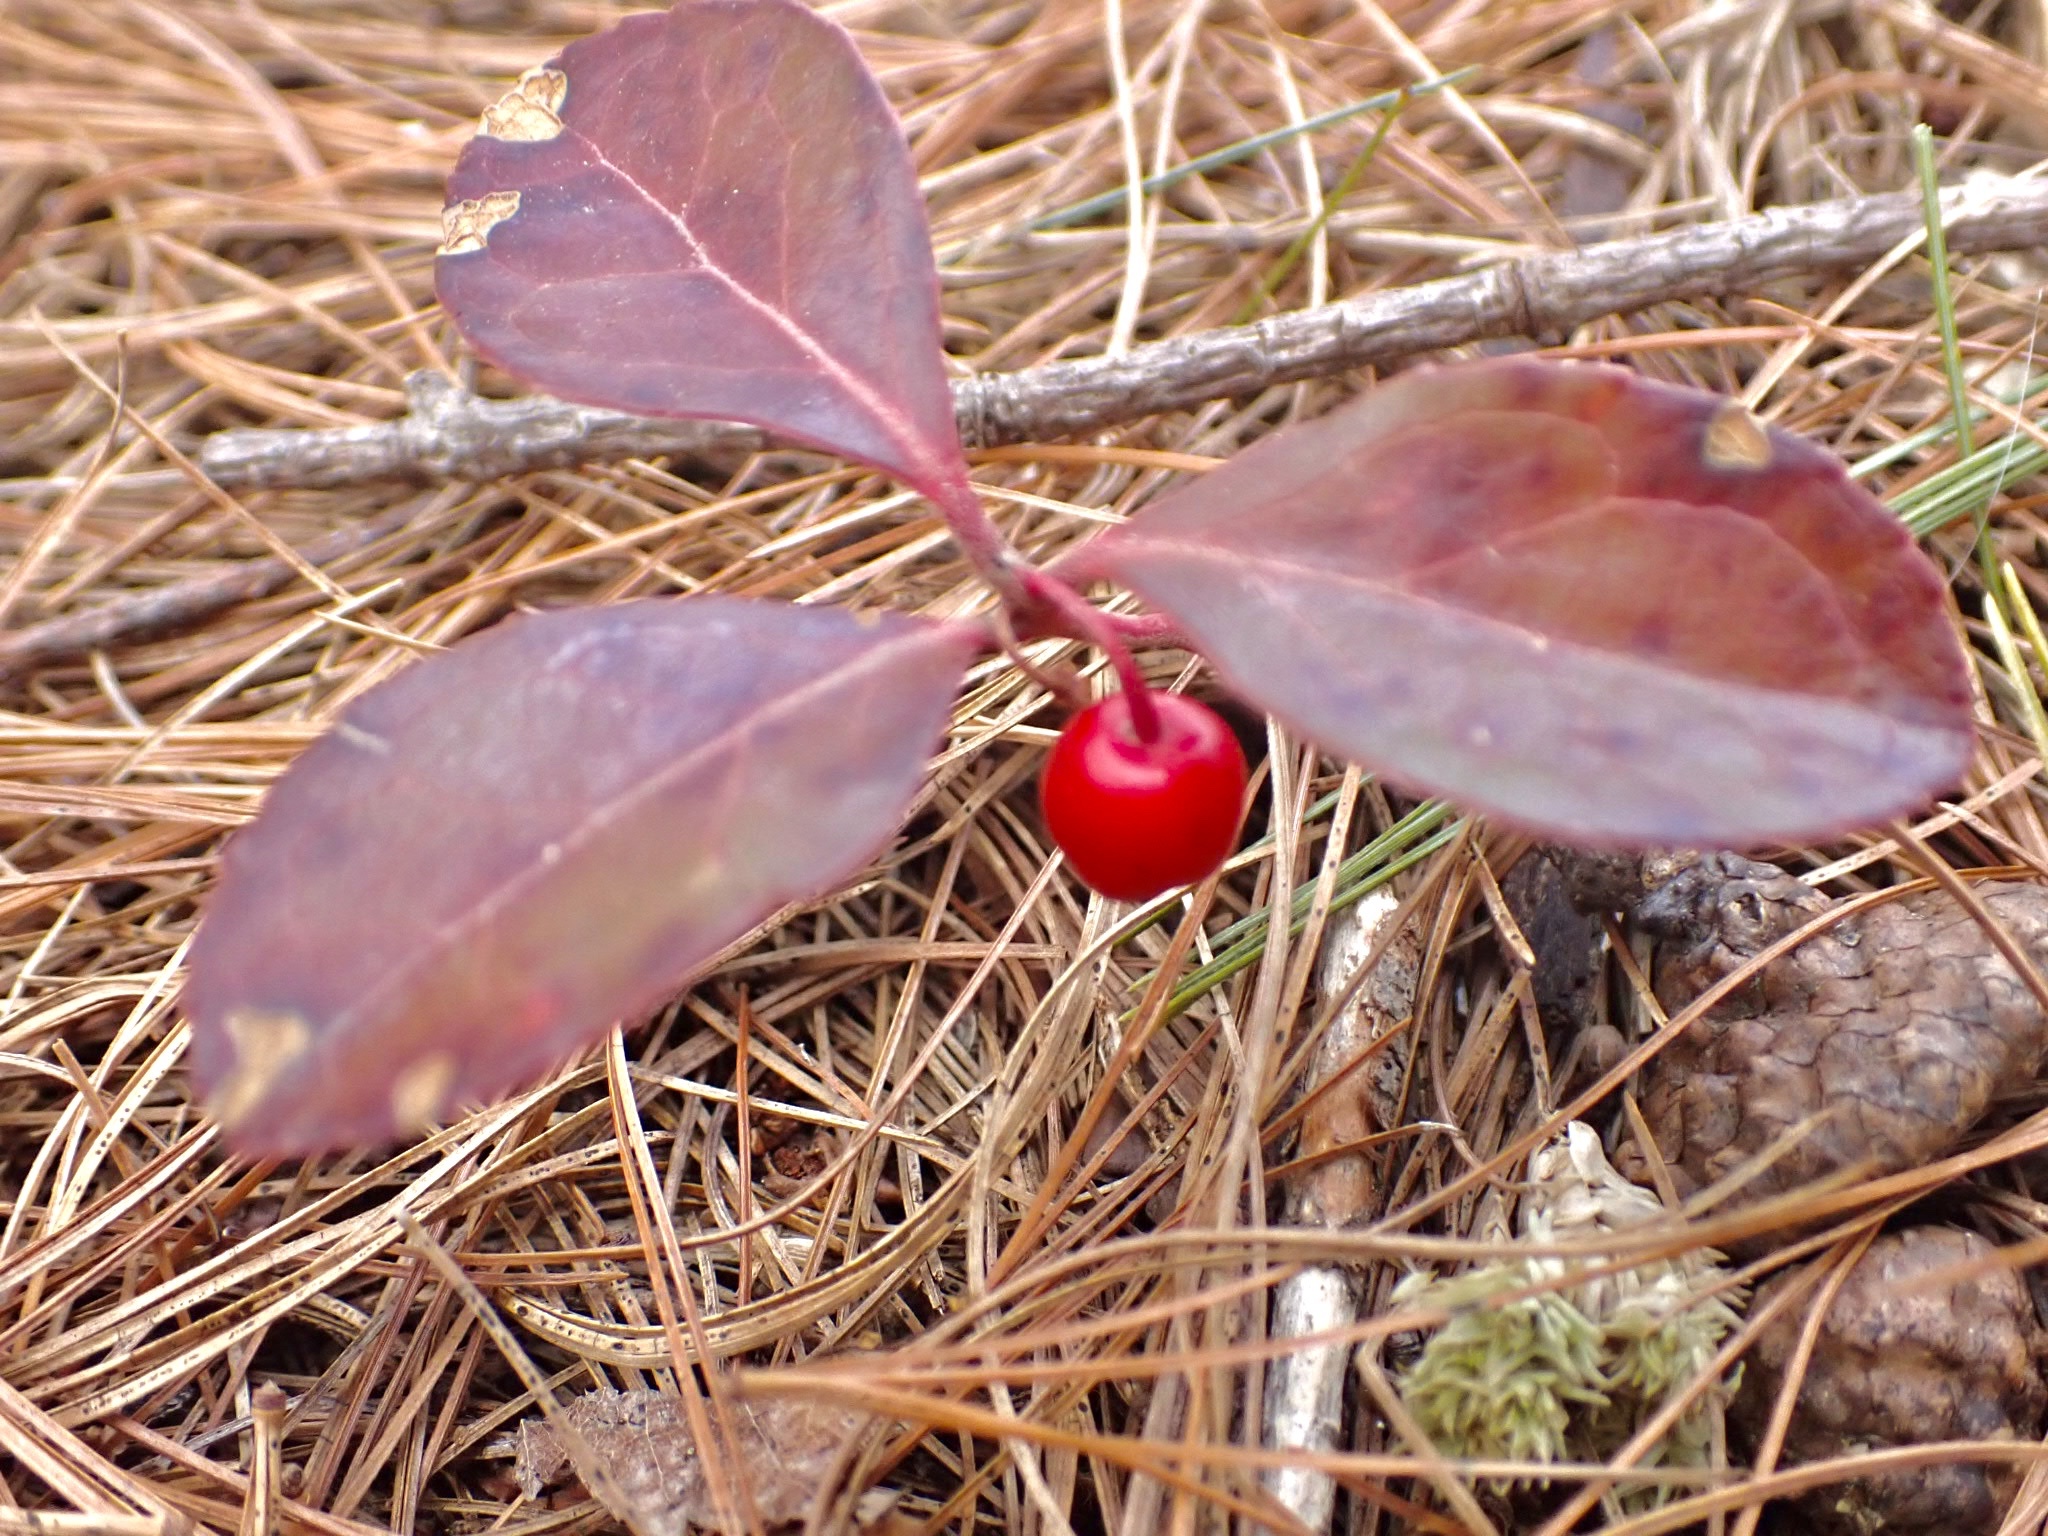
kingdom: Plantae
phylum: Tracheophyta
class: Magnoliopsida
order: Ericales
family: Ericaceae
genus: Gaultheria
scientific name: Gaultheria procumbens
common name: Checkerberry
